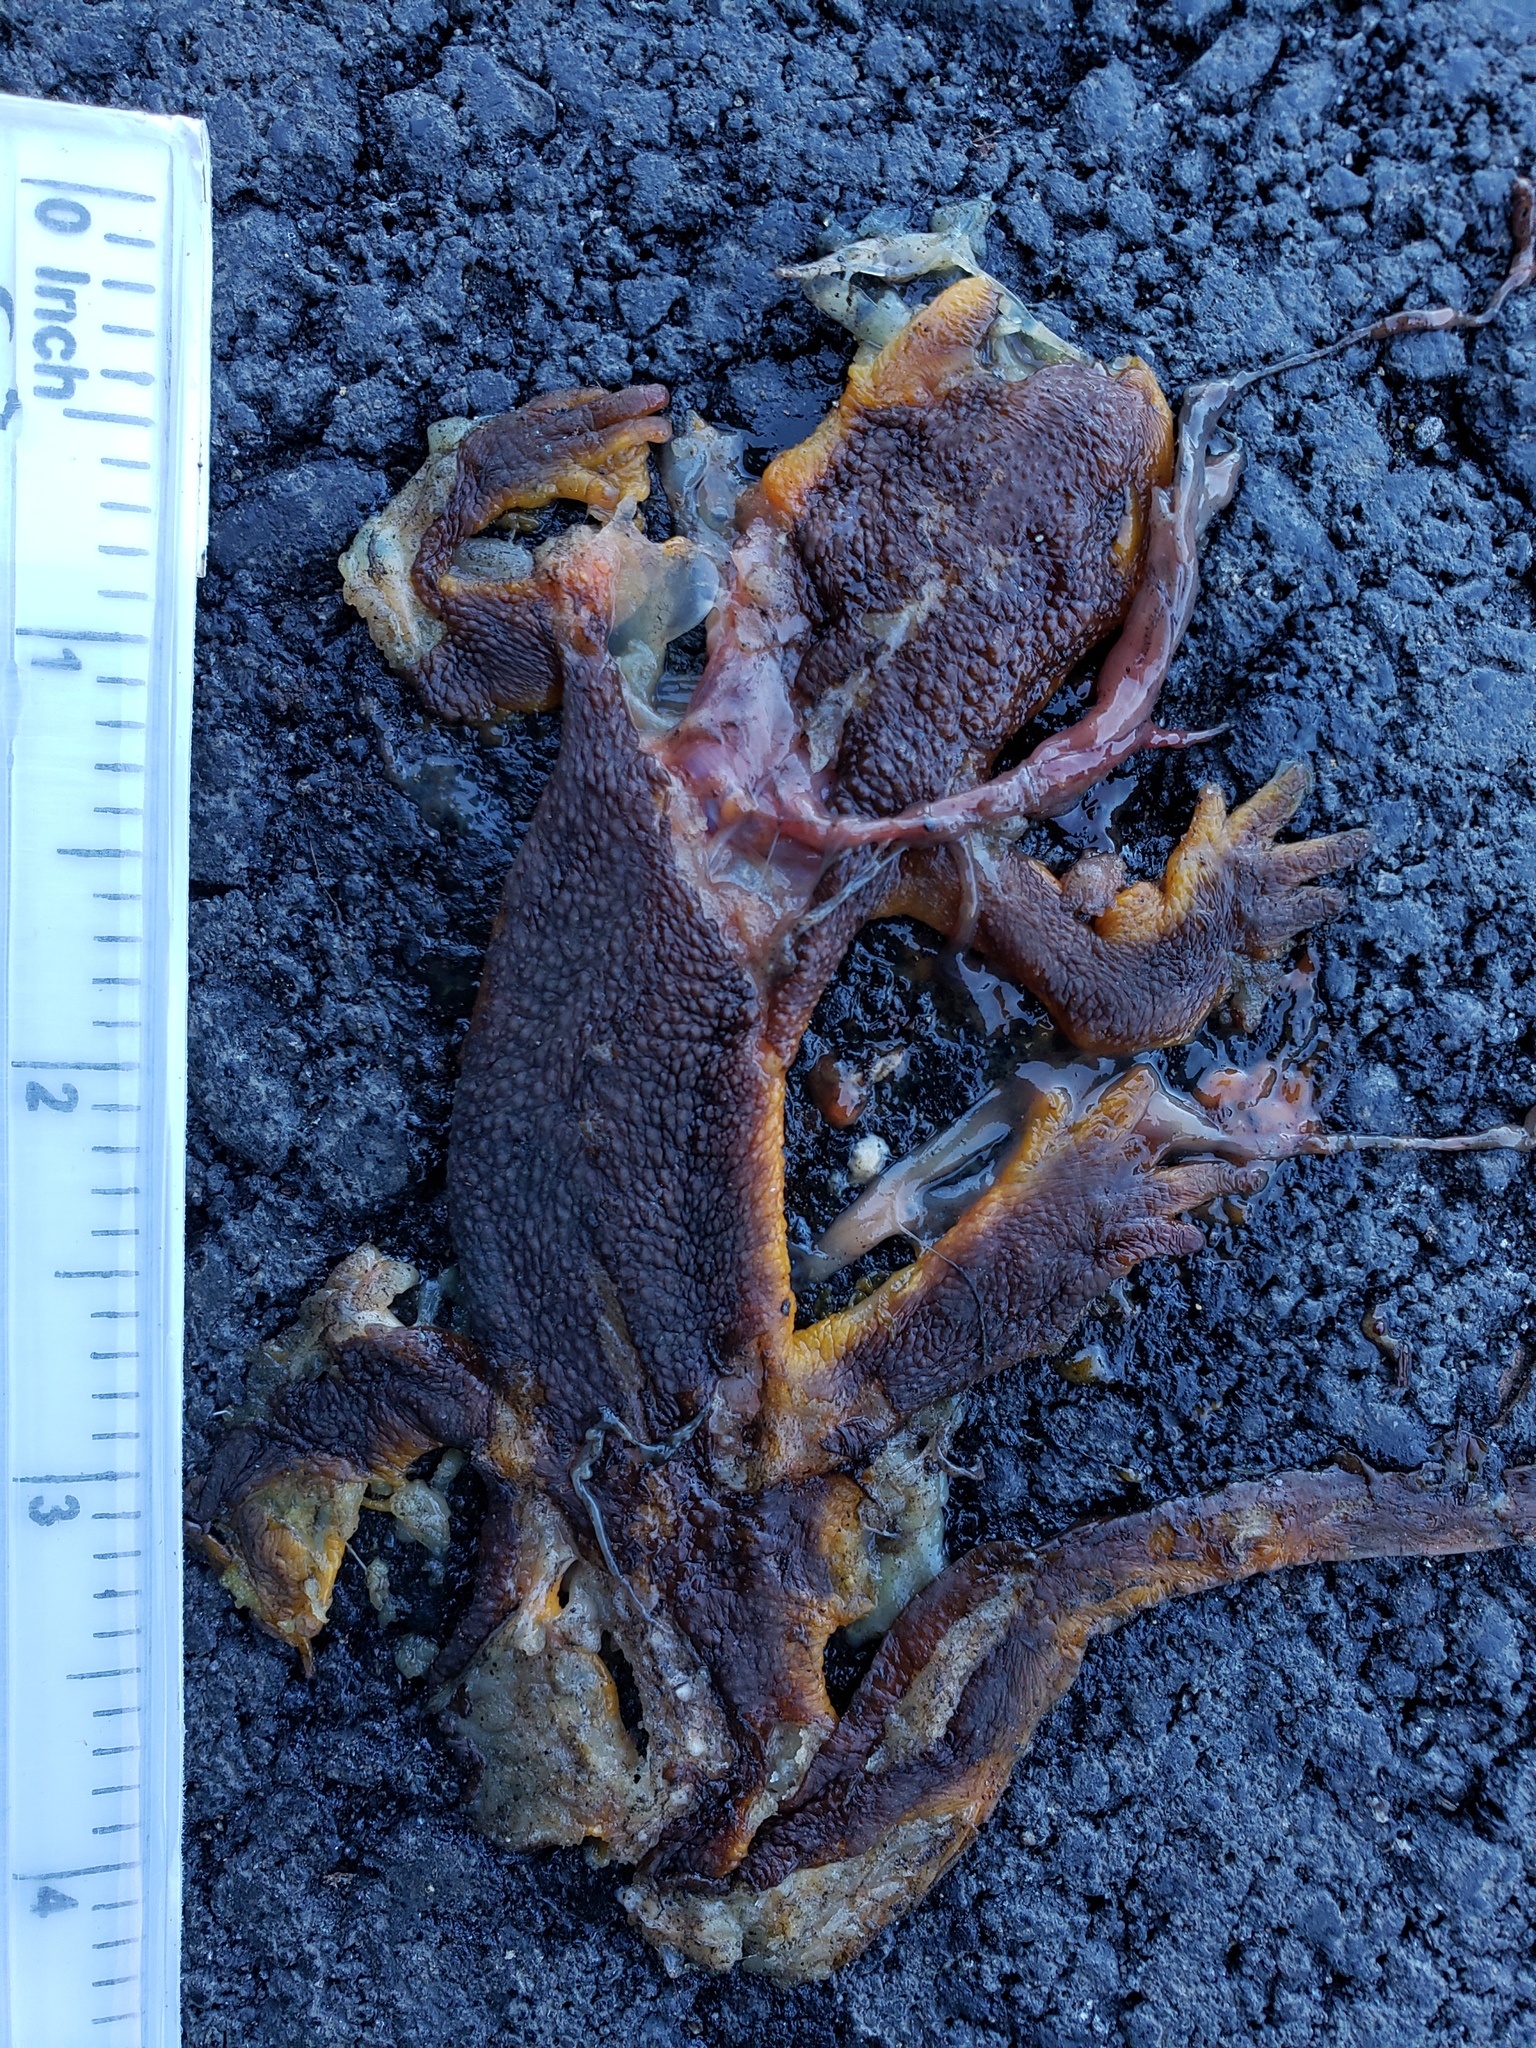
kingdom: Animalia
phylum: Chordata
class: Amphibia
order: Caudata
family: Salamandridae
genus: Taricha
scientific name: Taricha
